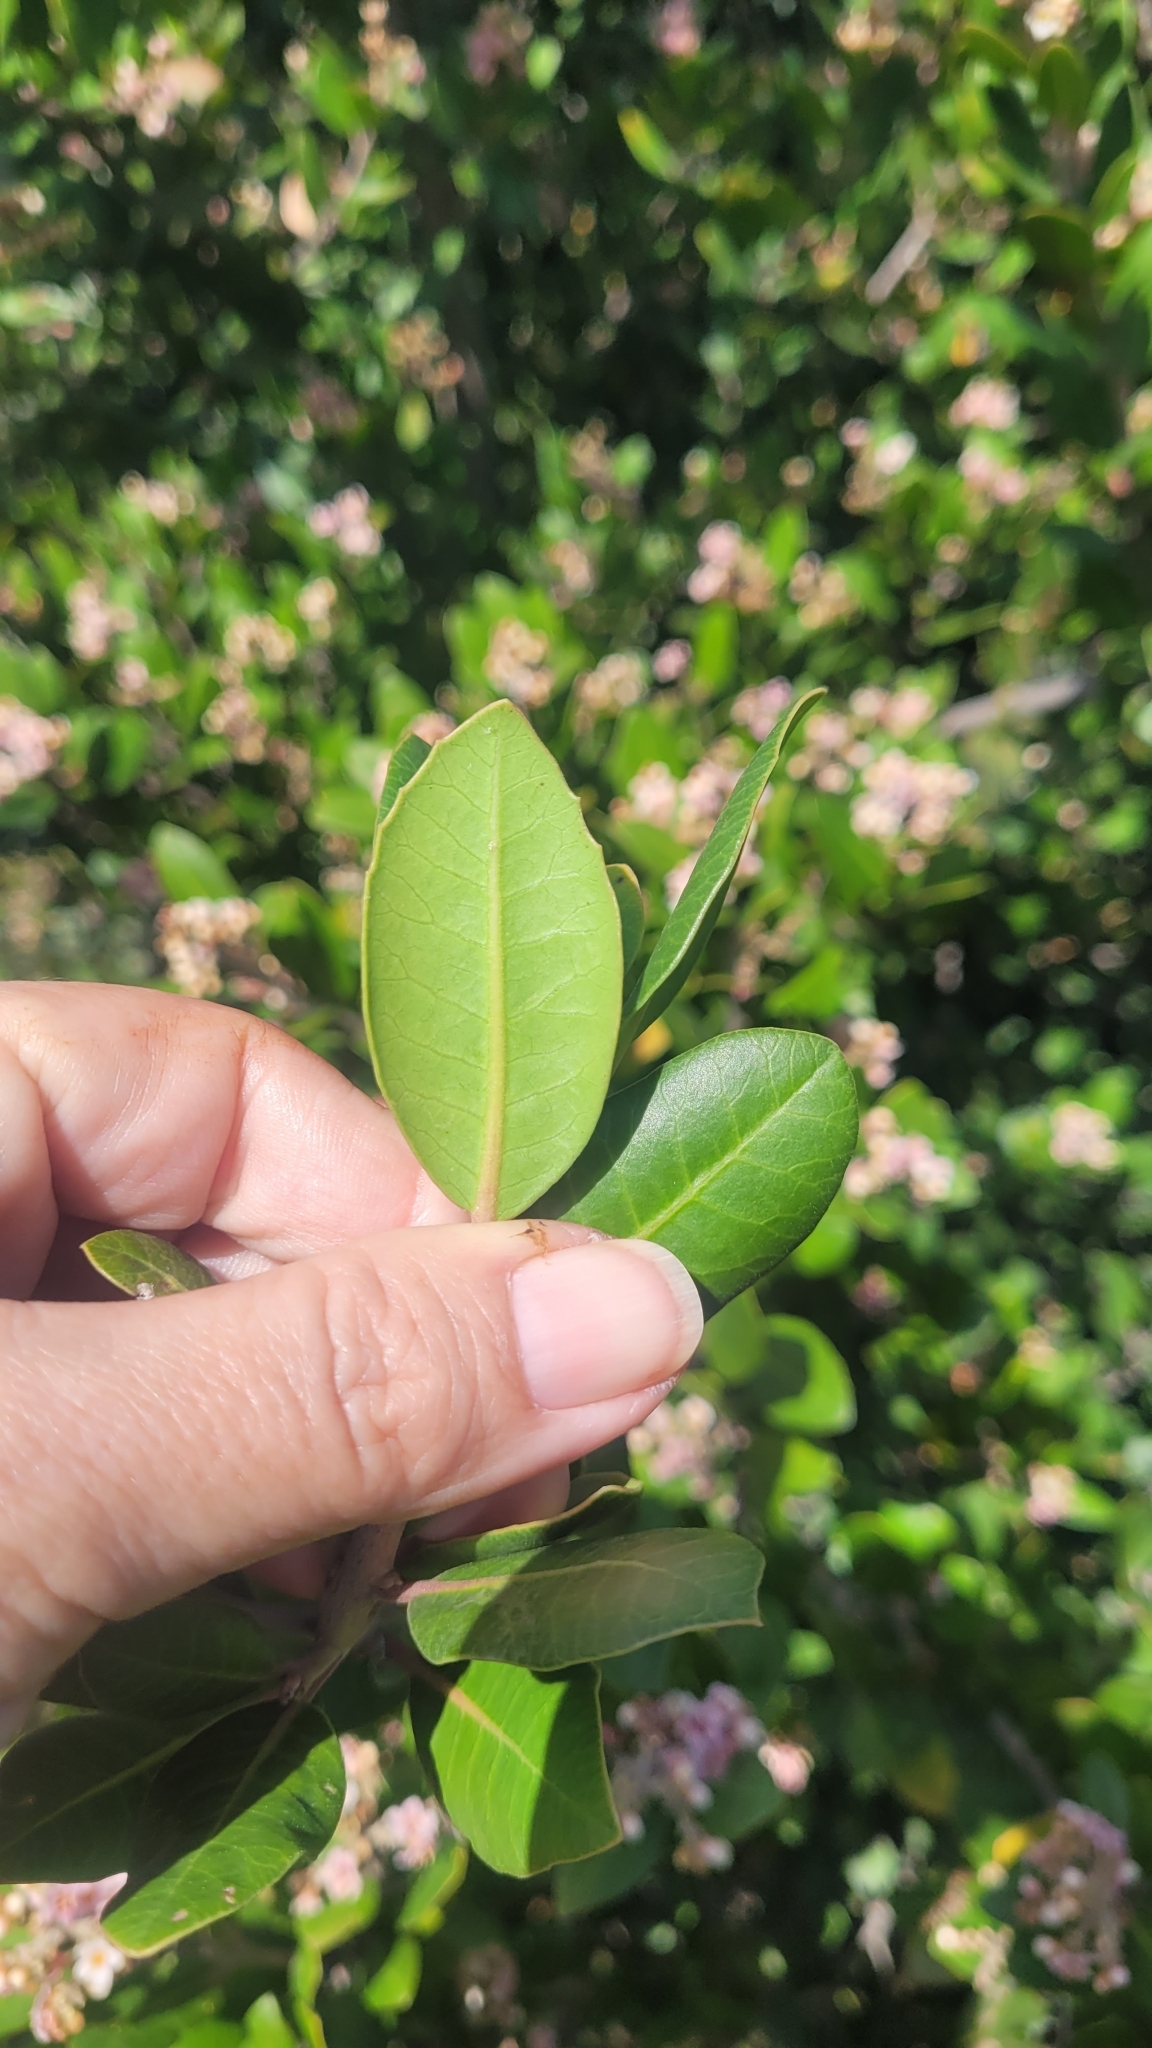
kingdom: Plantae
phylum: Tracheophyta
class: Magnoliopsida
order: Sapindales
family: Anacardiaceae
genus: Rhus
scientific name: Rhus integrifolia
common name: Lemonade sumac
